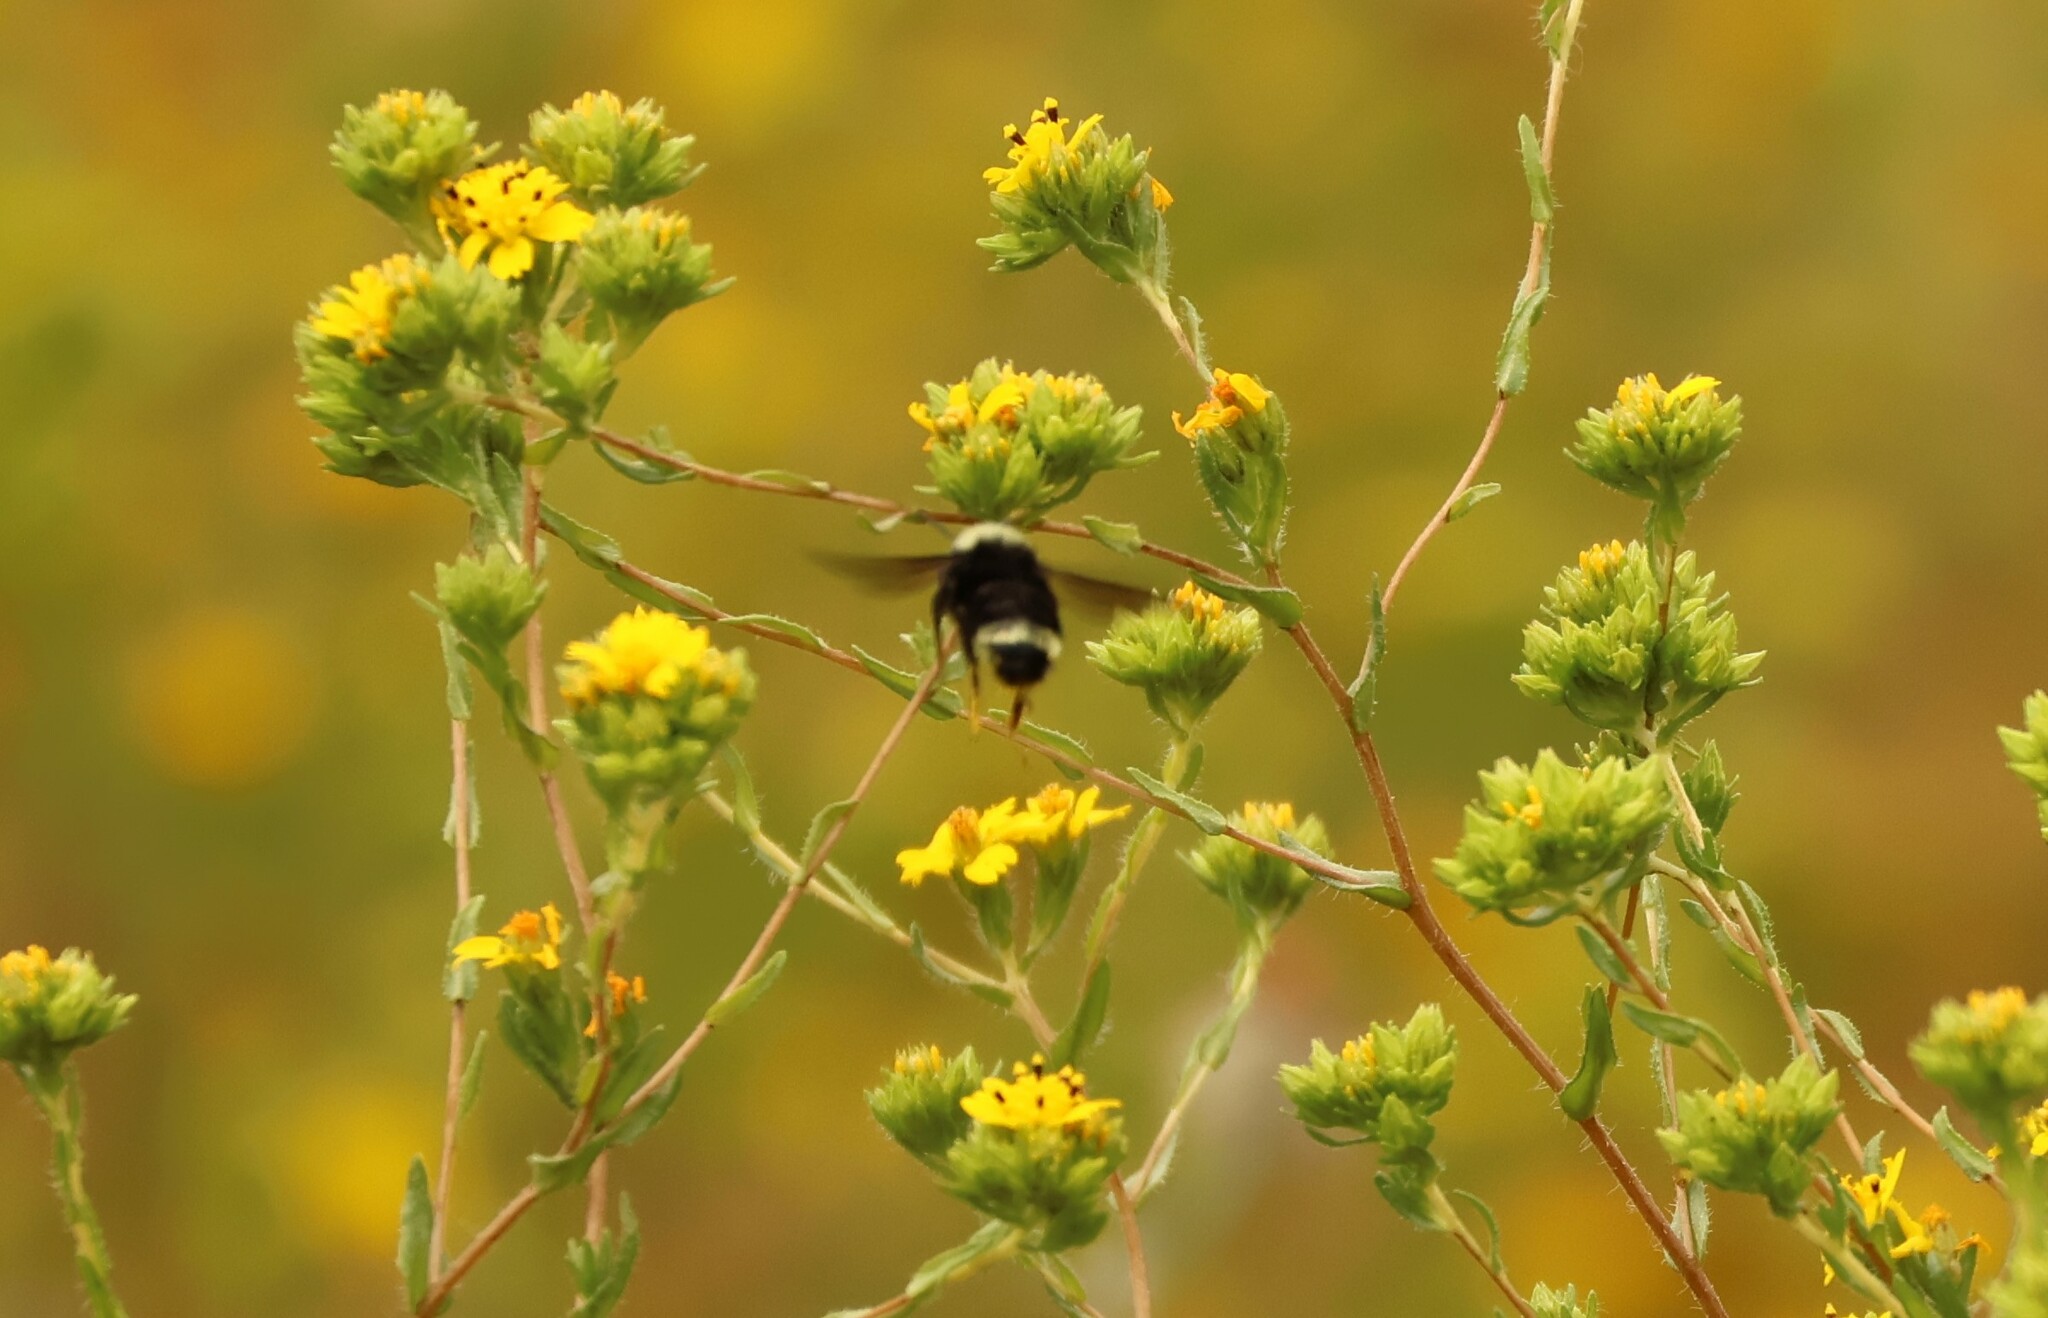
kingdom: Animalia
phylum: Arthropoda
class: Insecta
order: Hymenoptera
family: Apidae
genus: Bombus
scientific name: Bombus vosnesenskii
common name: Vosnesensky bumble bee
